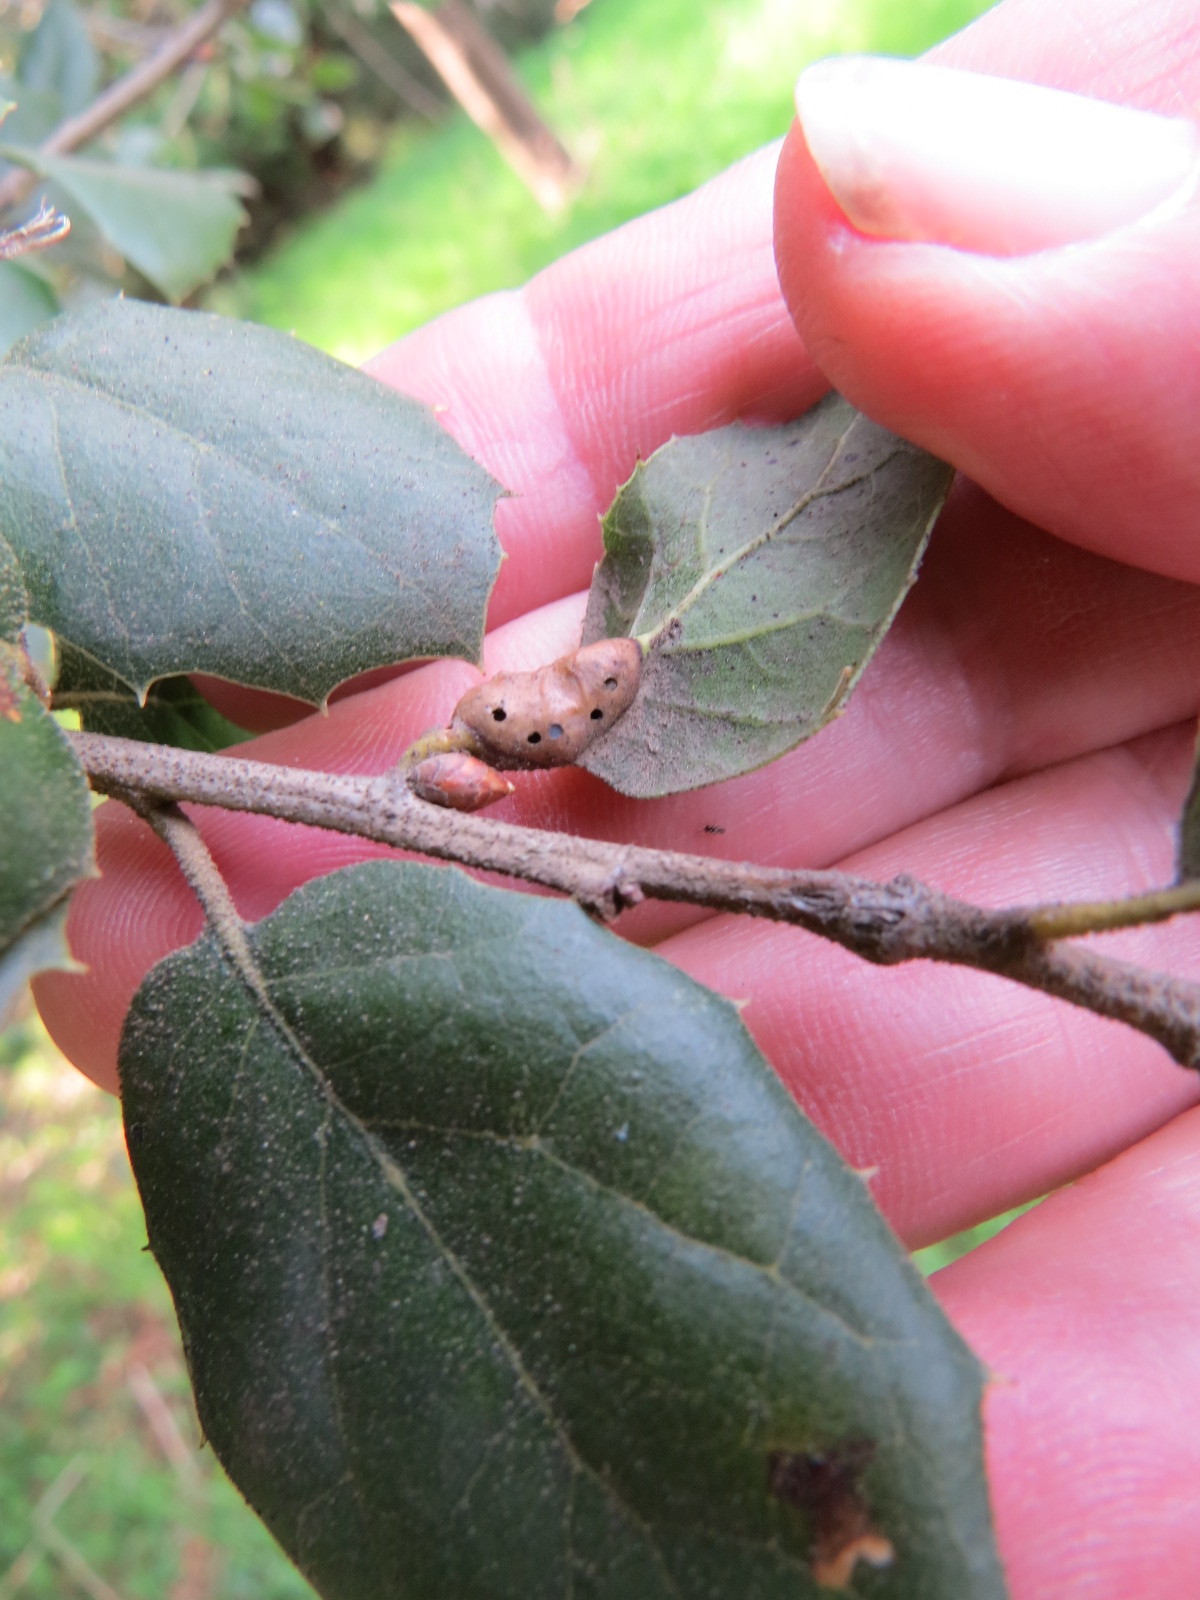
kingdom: Animalia
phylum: Arthropoda
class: Insecta
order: Hymenoptera
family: Cynipidae
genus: Melikaiella
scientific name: Melikaiella
